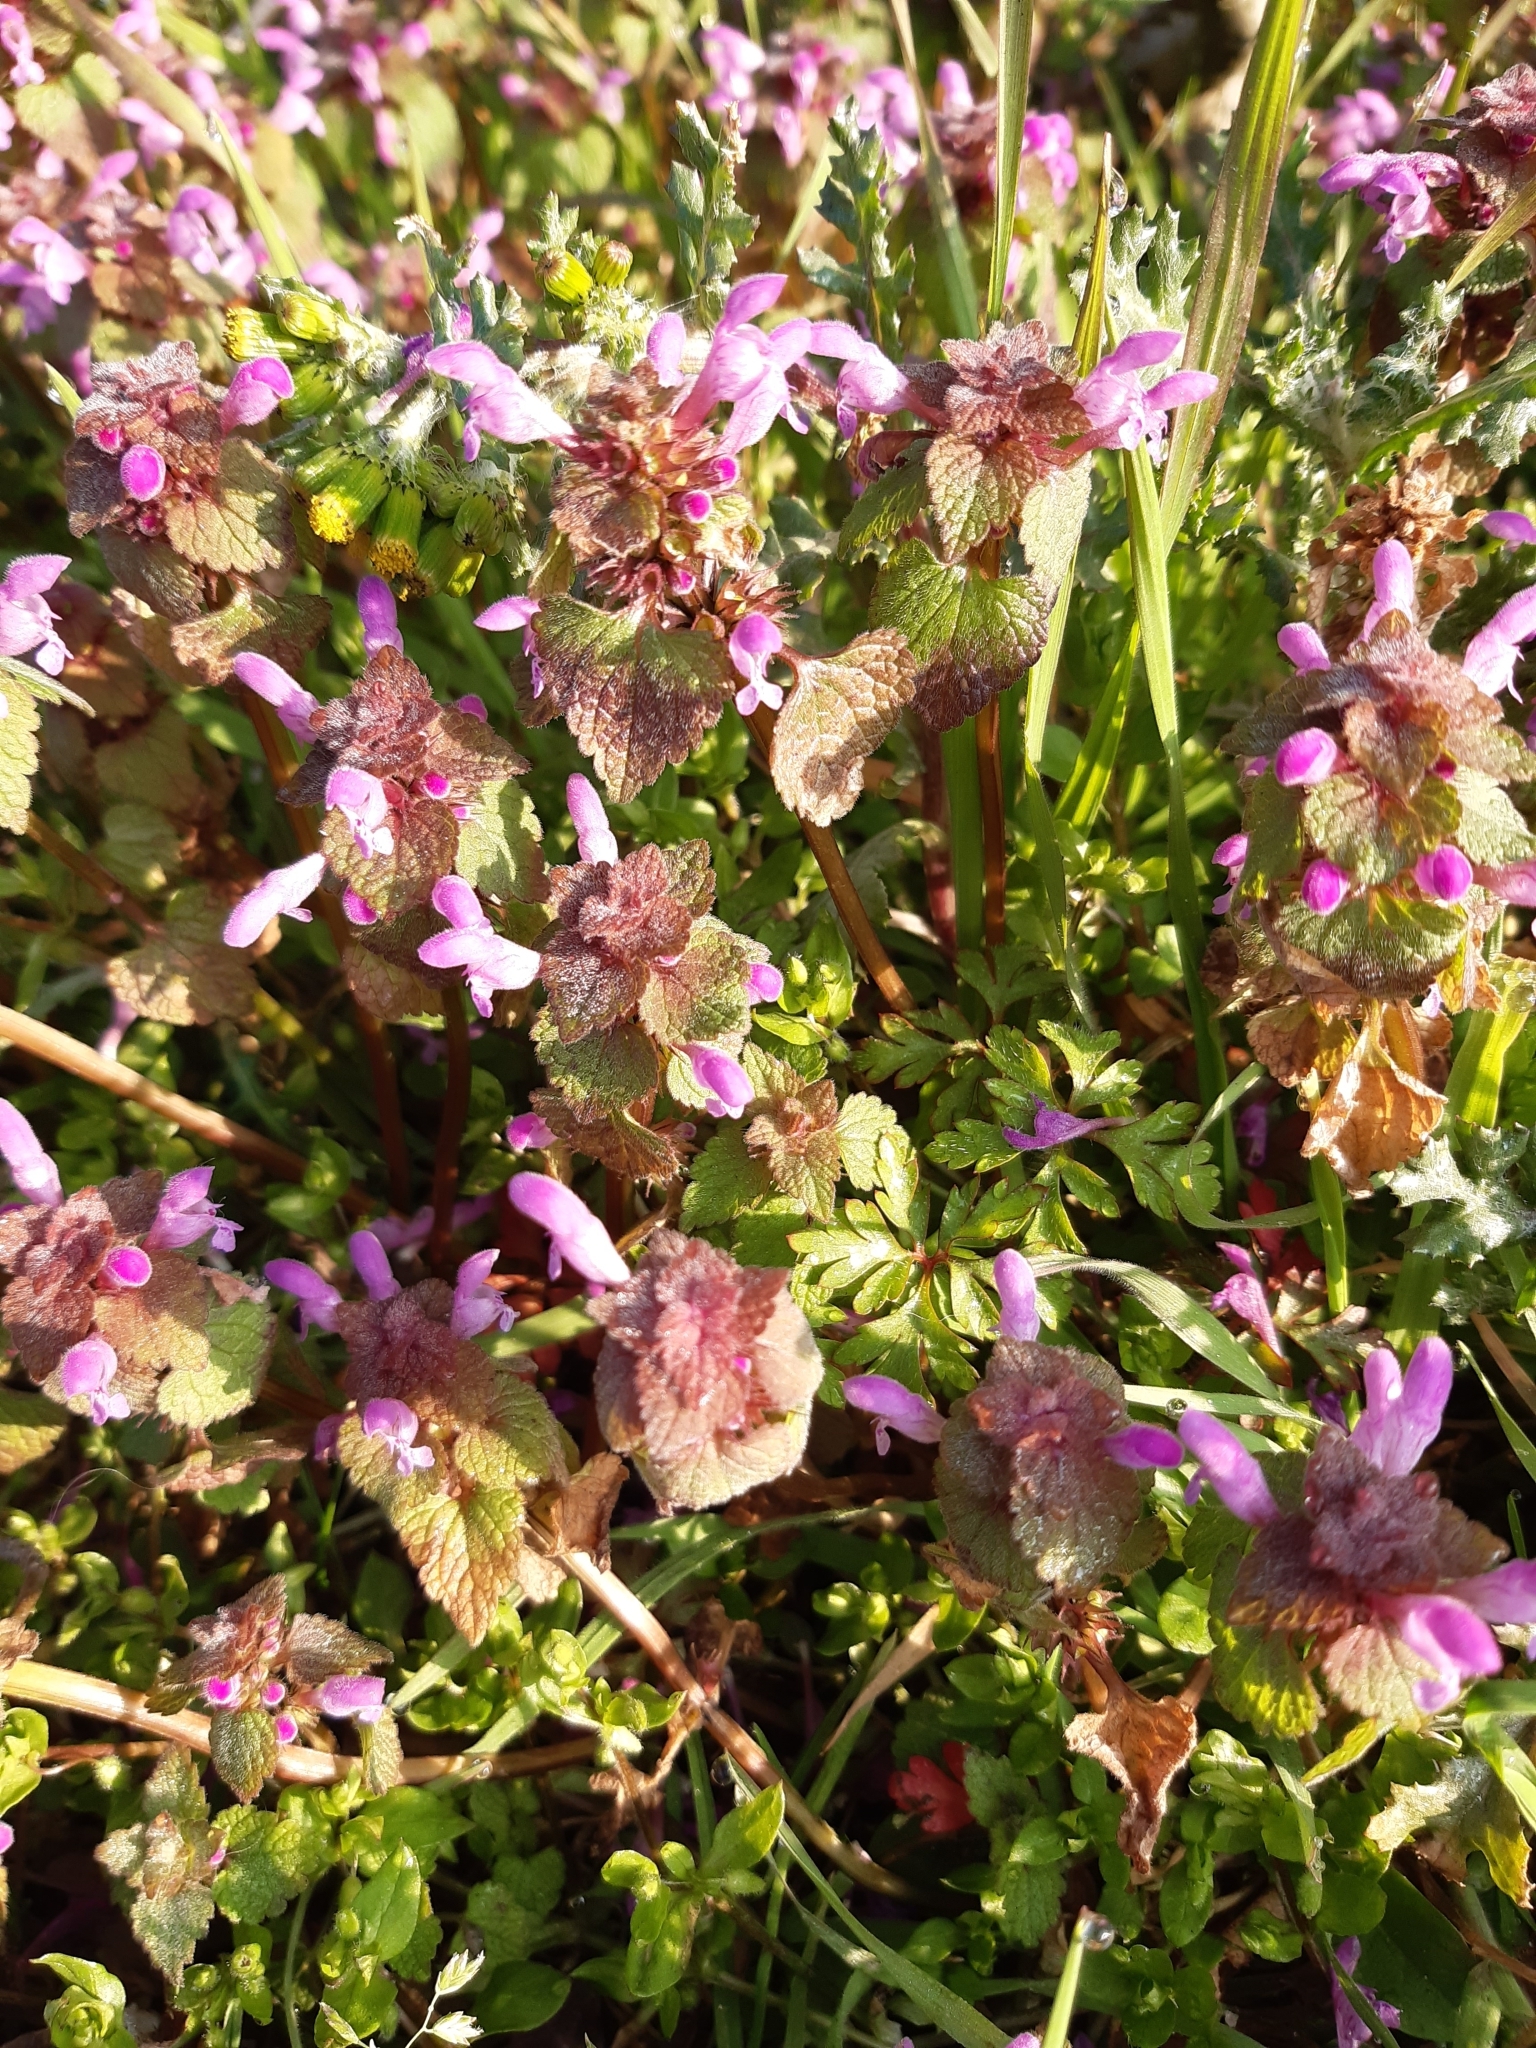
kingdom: Plantae
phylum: Tracheophyta
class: Magnoliopsida
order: Lamiales
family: Lamiaceae
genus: Lamium
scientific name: Lamium purpureum
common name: Red dead-nettle
